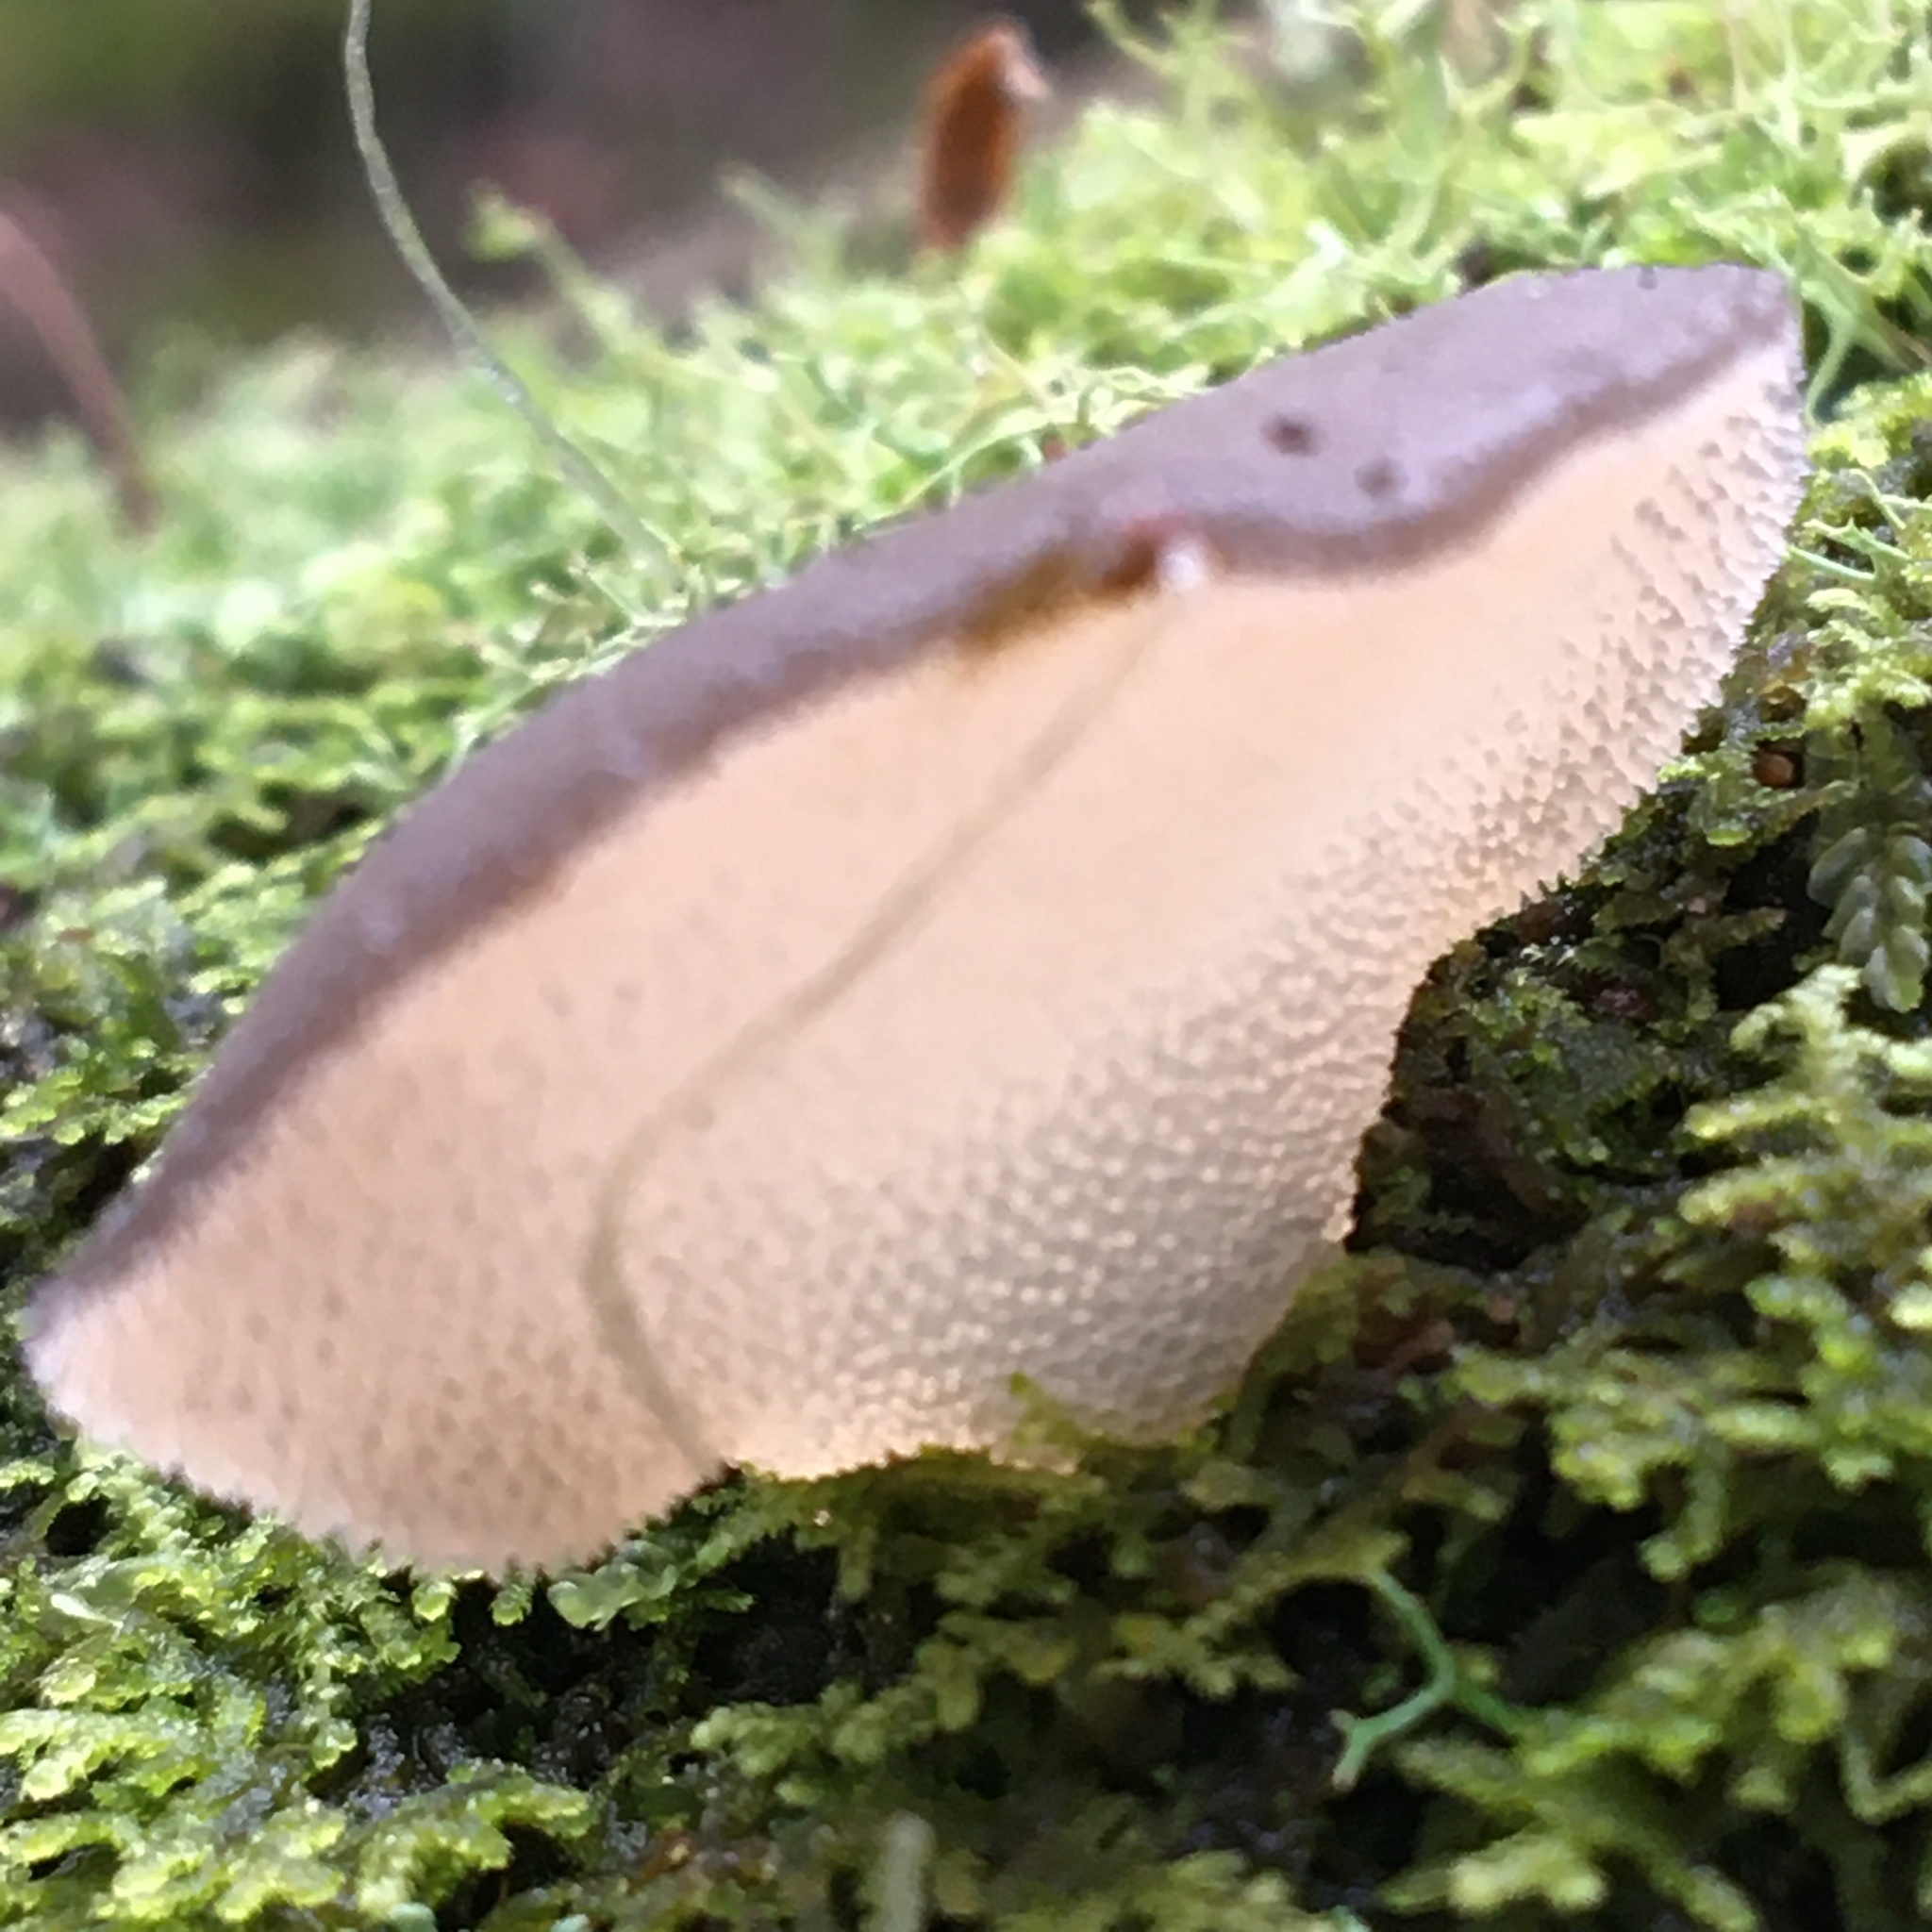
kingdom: Fungi
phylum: Basidiomycota
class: Agaricomycetes
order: Auriculariales
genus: Pseudohydnum
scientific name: Pseudohydnum gelatinosum
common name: Jelly tongue
